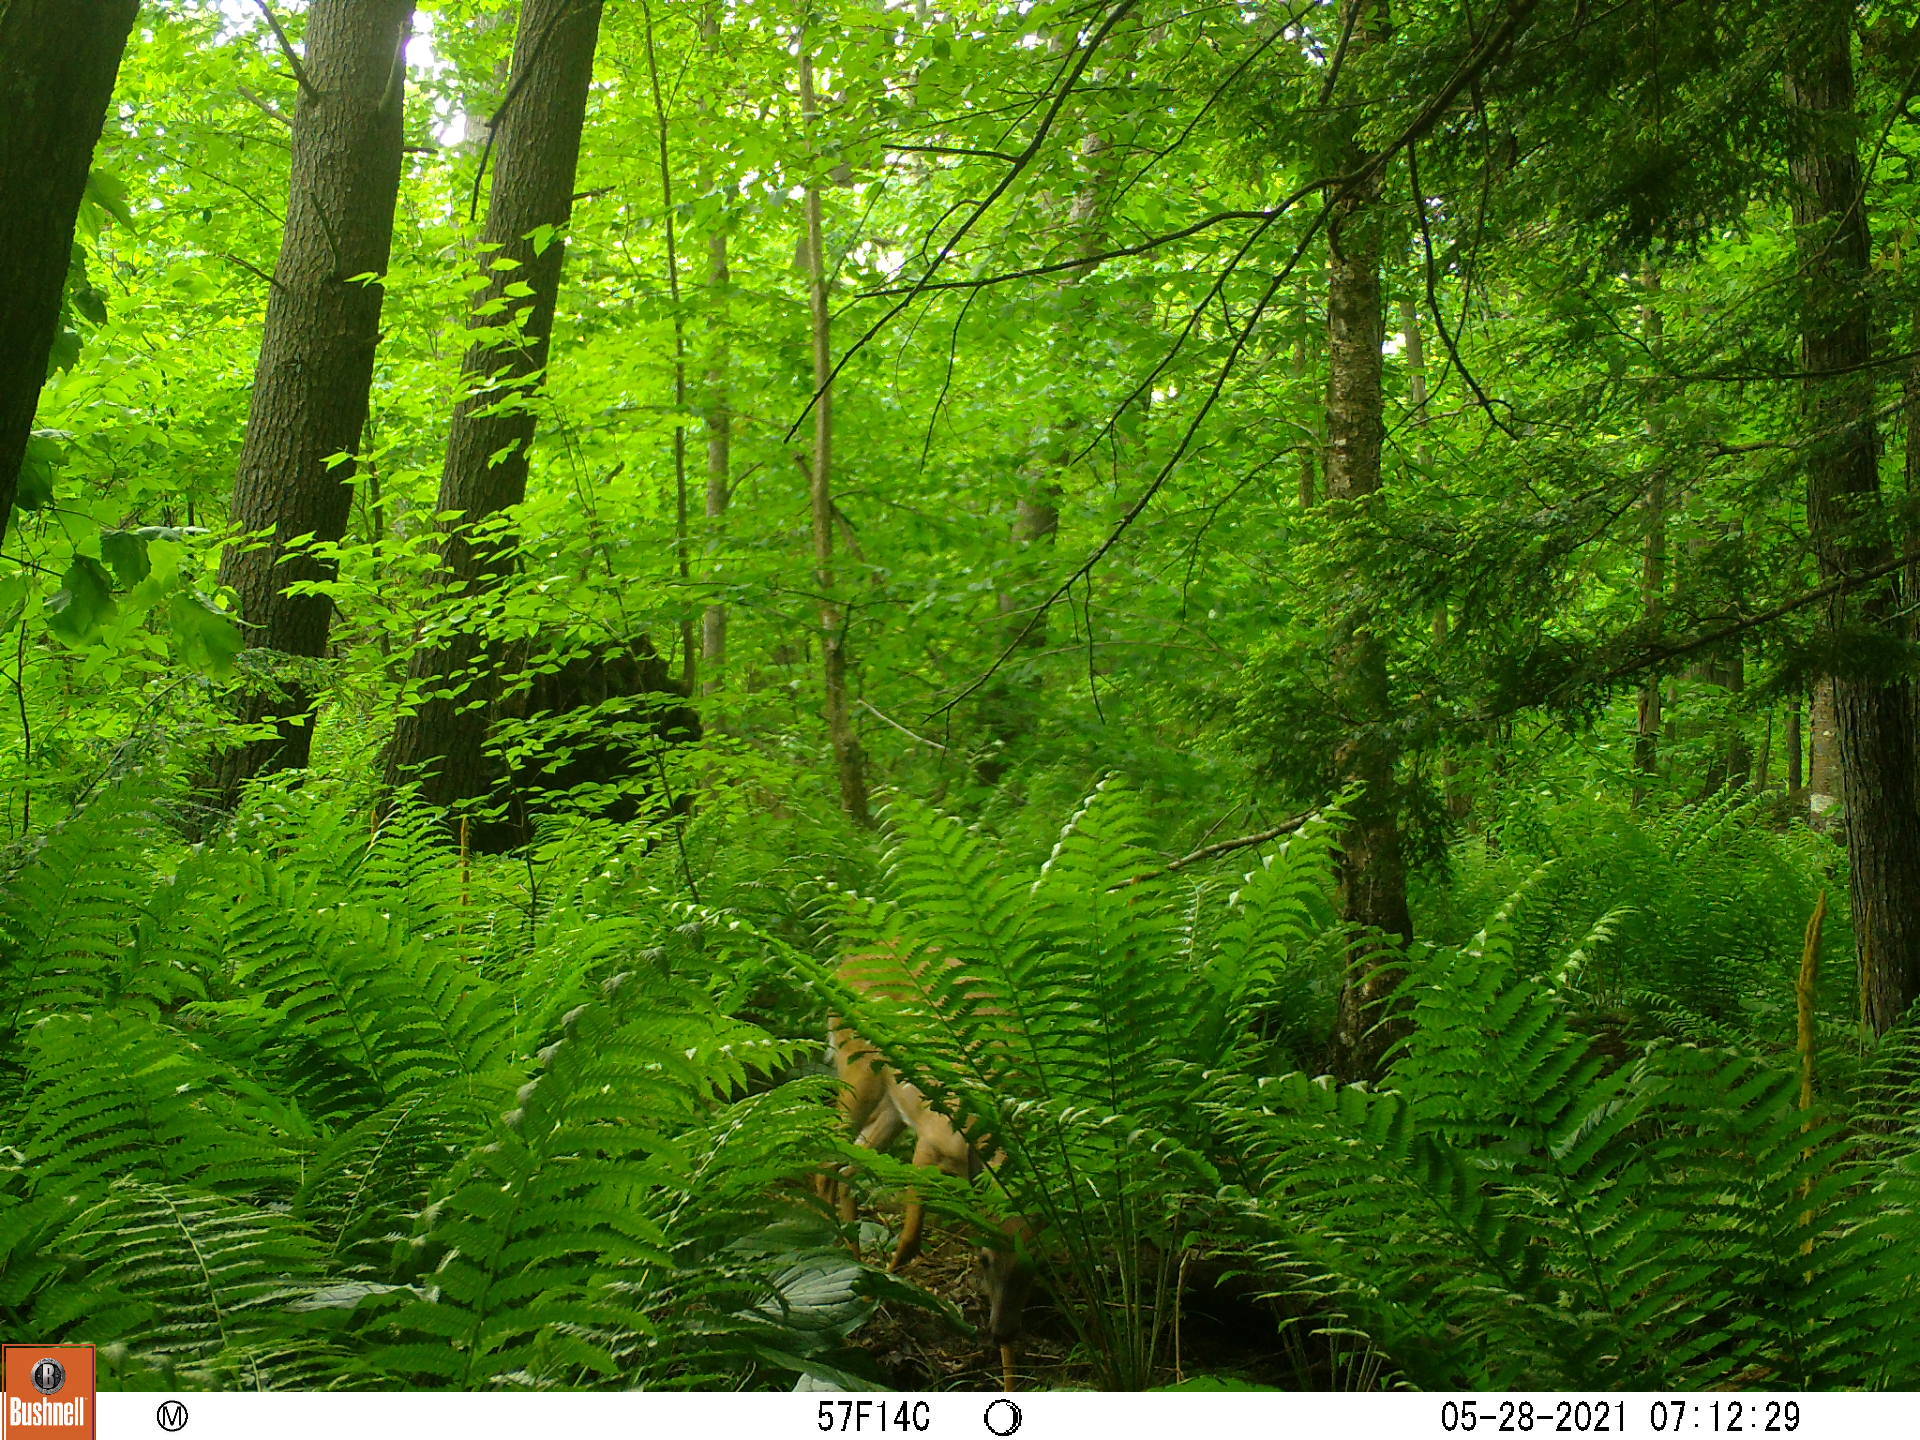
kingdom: Animalia
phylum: Chordata
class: Mammalia
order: Artiodactyla
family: Cervidae
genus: Odocoileus
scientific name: Odocoileus virginianus
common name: White-tailed deer
